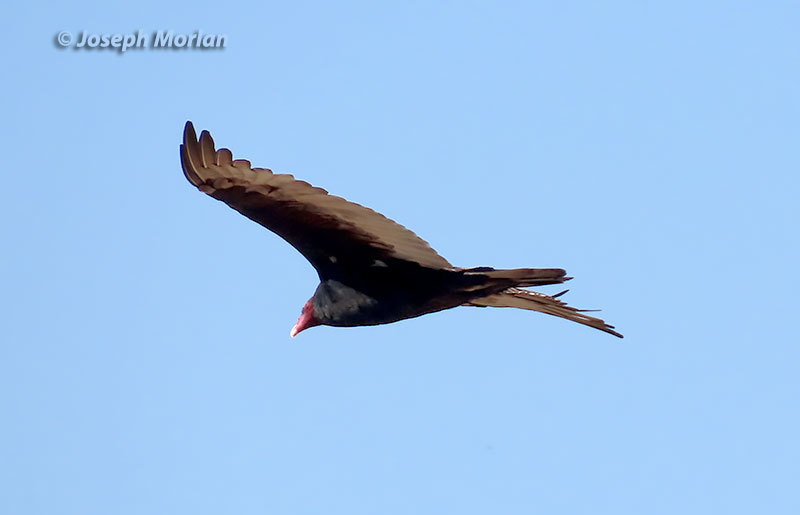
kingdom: Animalia
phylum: Chordata
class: Aves
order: Accipitriformes
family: Cathartidae
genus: Cathartes
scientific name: Cathartes aura
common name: Turkey vulture
